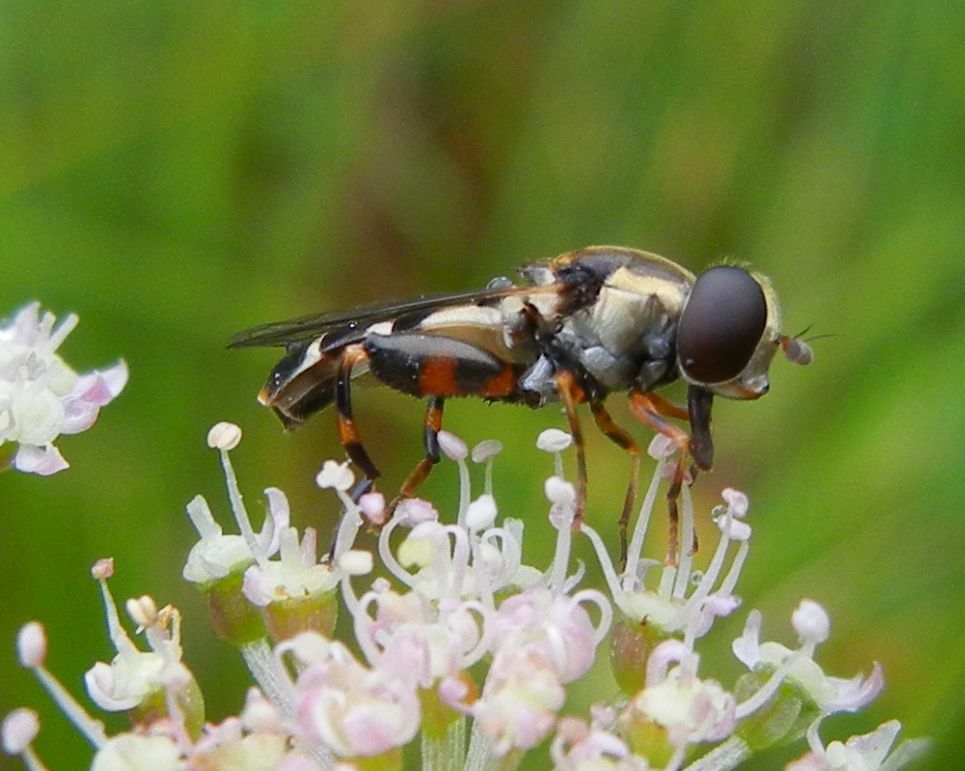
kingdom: Animalia
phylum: Arthropoda
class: Insecta
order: Diptera
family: Syrphidae
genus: Syritta
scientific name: Syritta pipiens
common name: Hover fly
